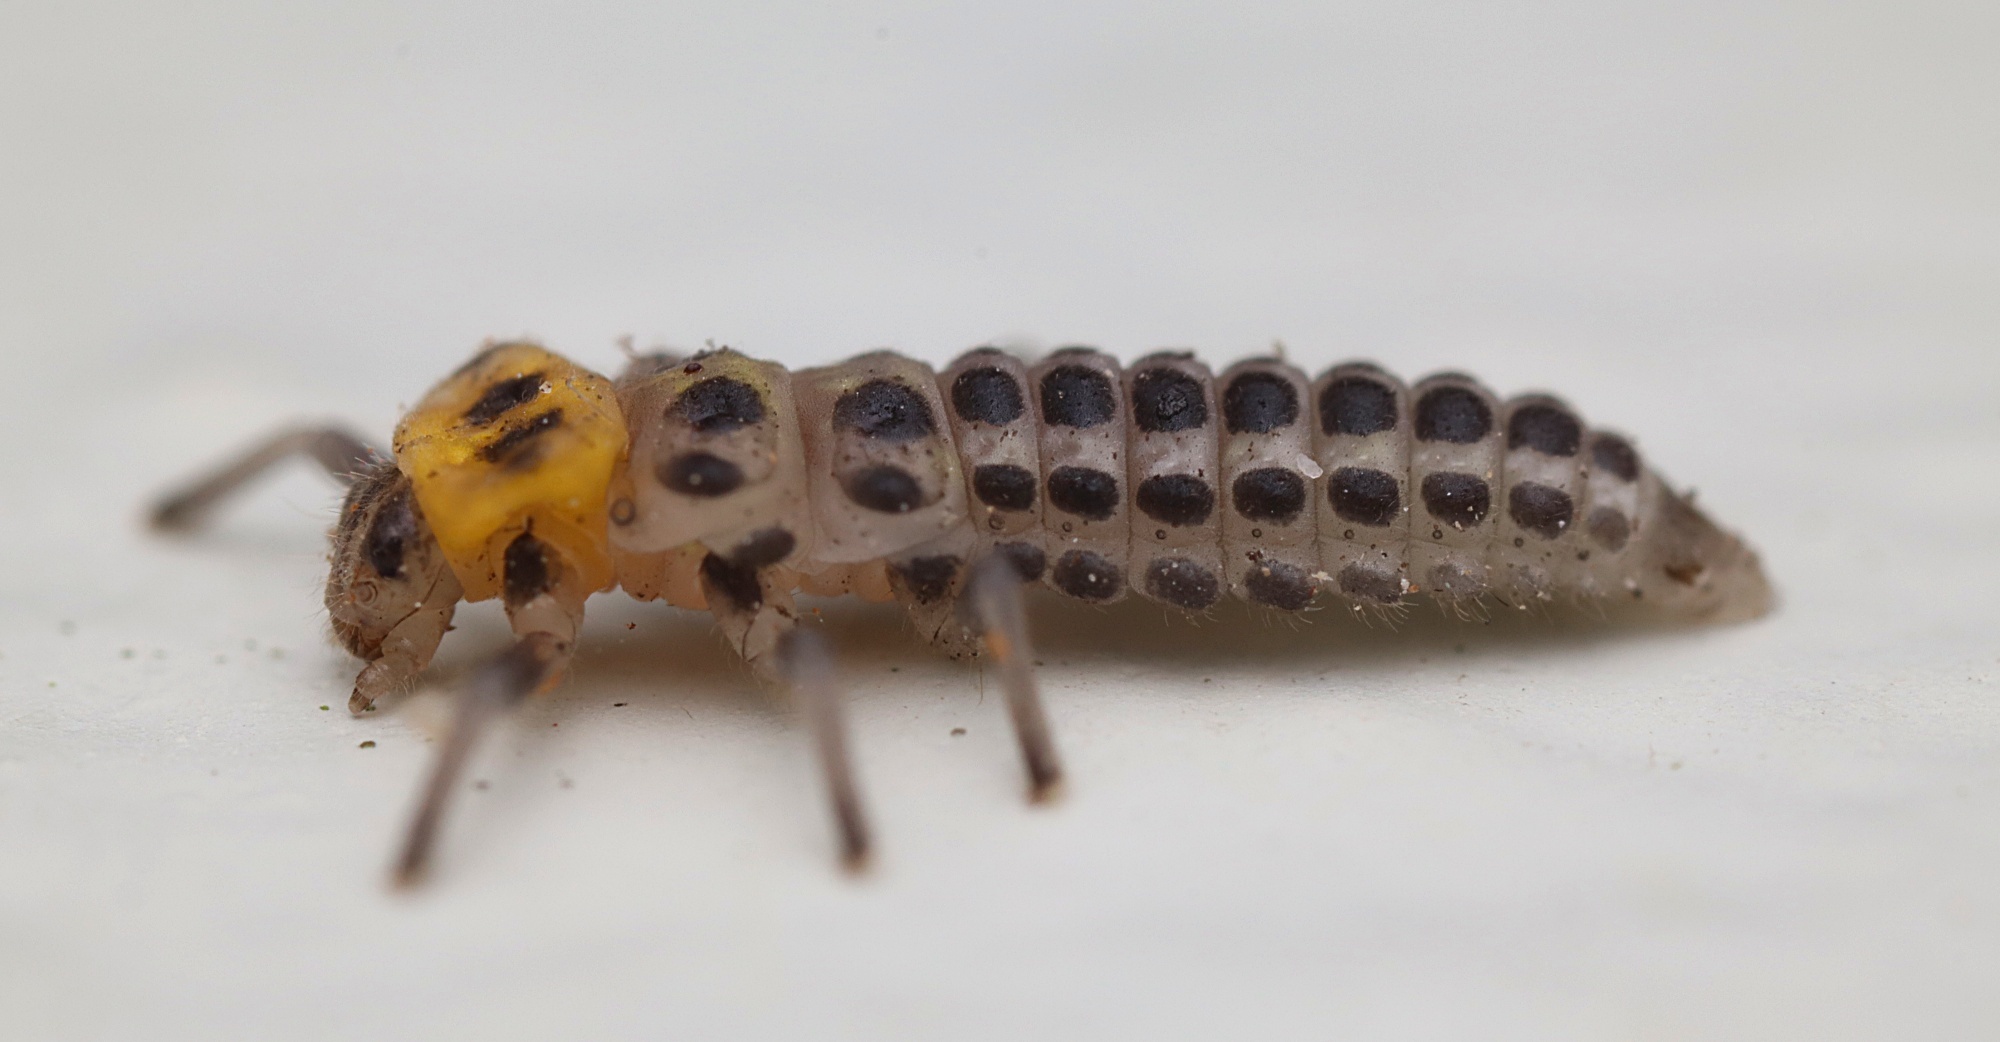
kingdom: Animalia
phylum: Arthropoda
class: Insecta
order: Coleoptera
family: Coccinellidae
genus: Illeis
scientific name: Illeis galbula
